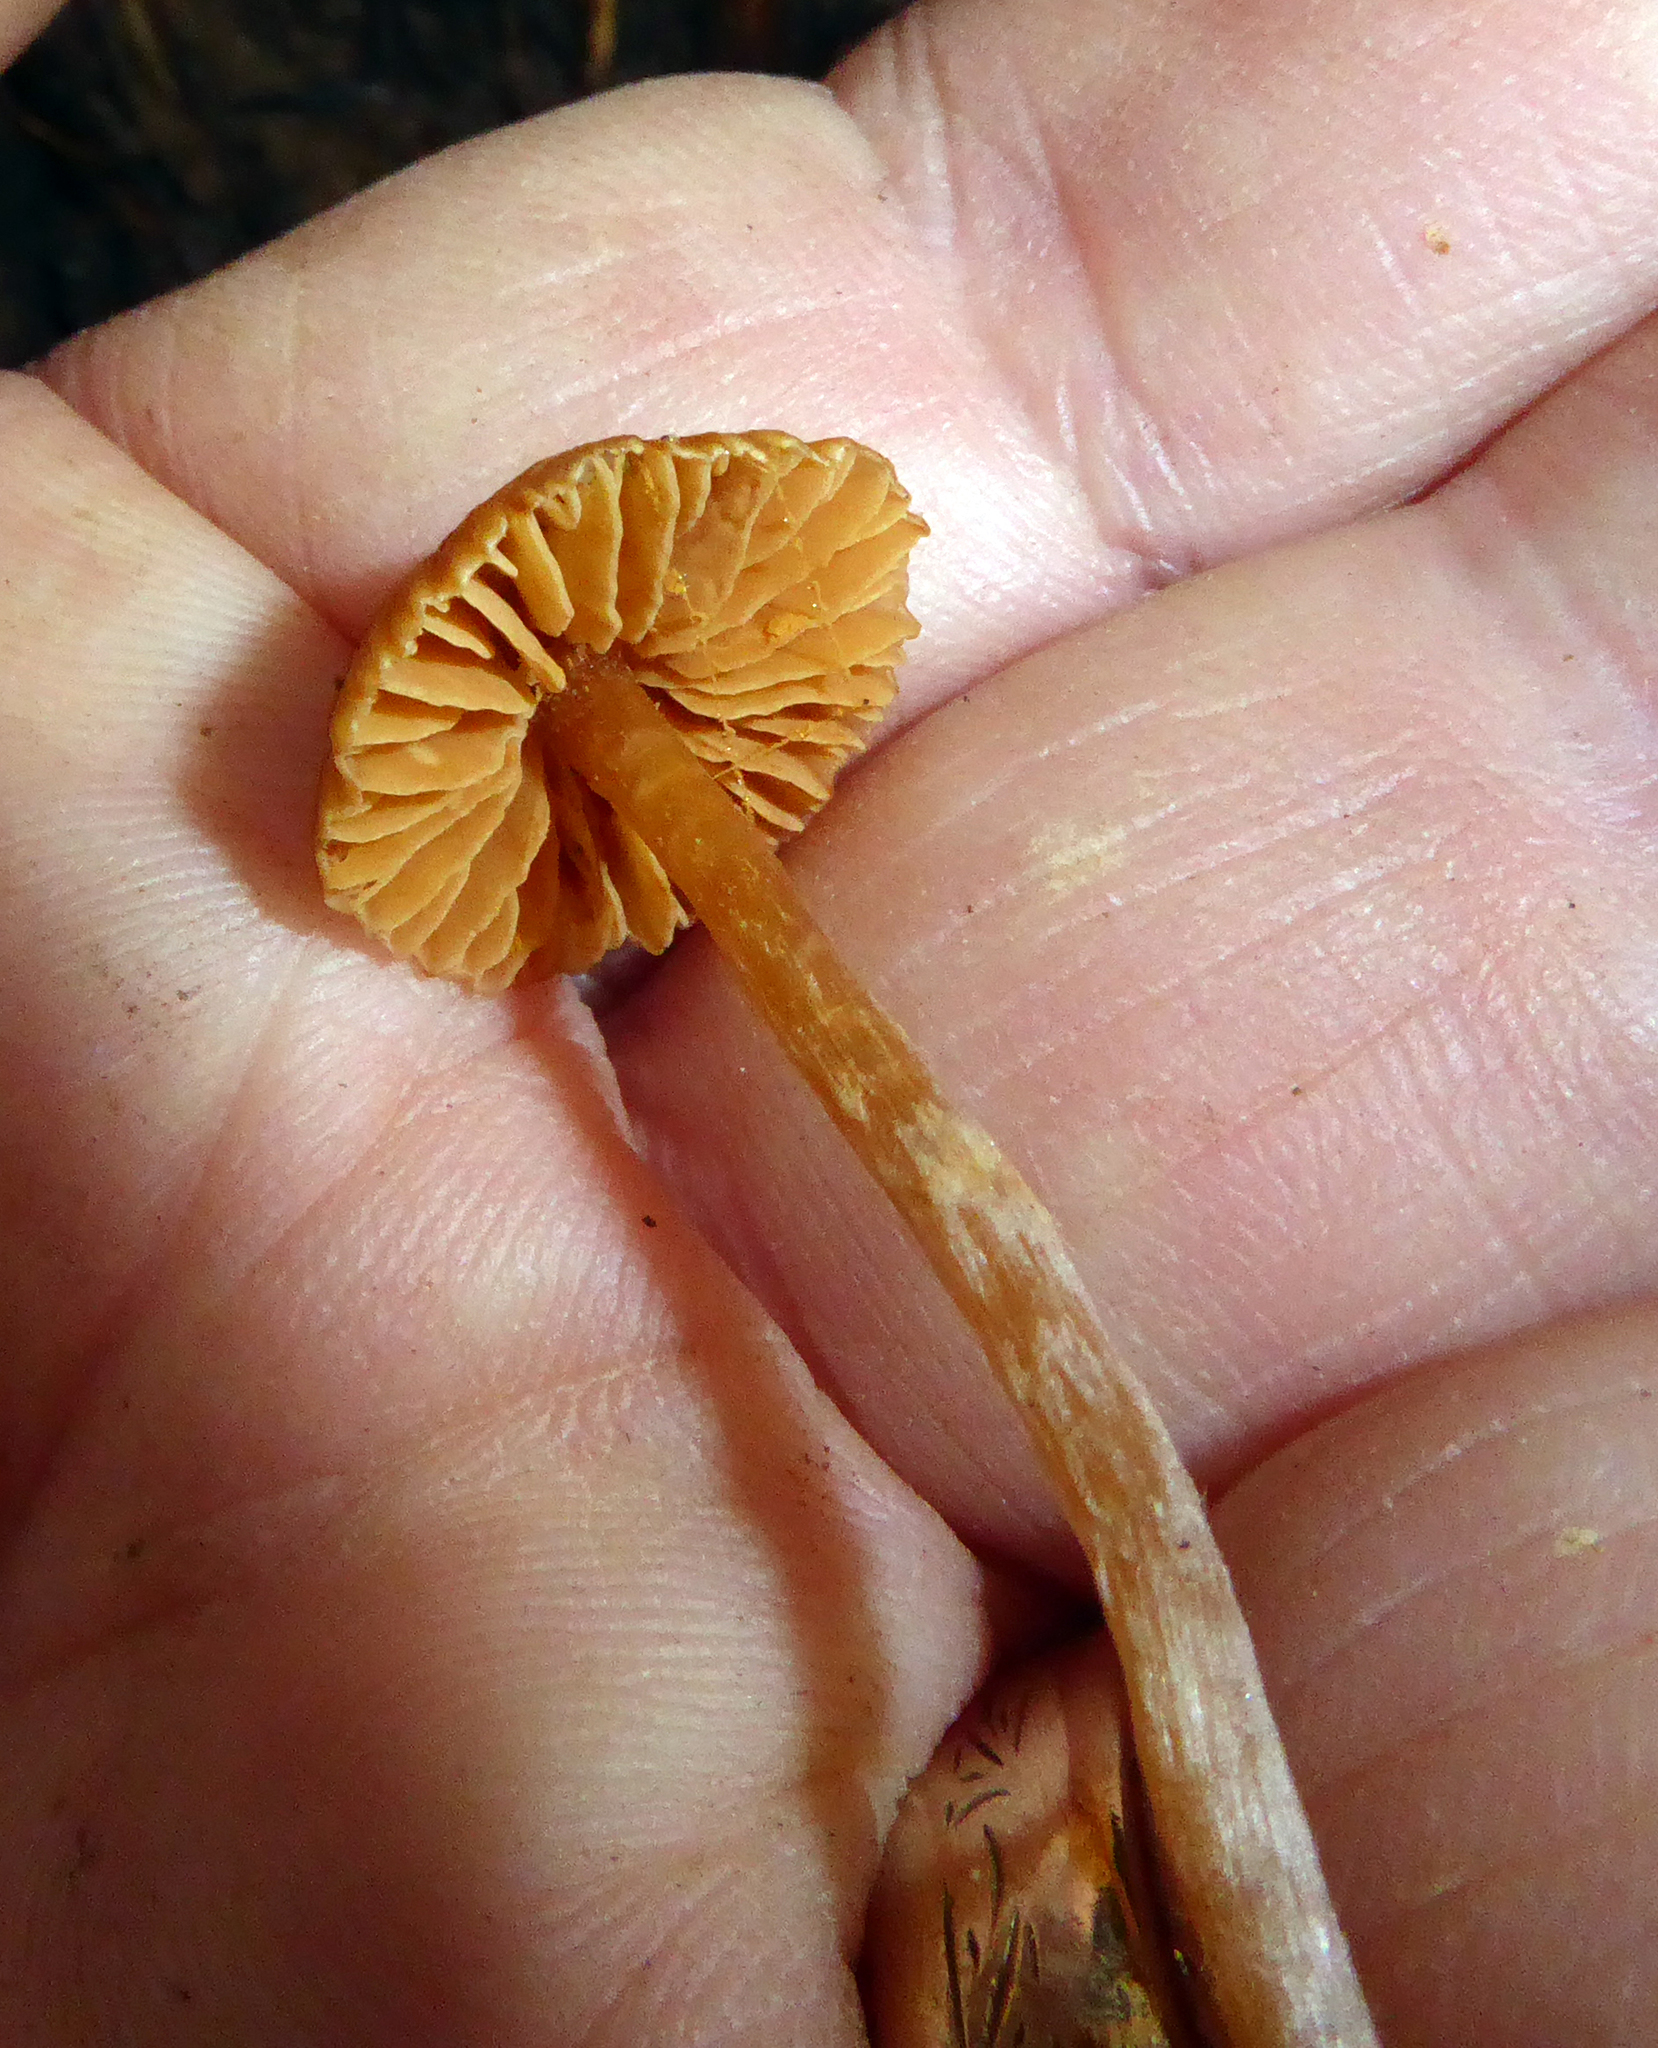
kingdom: Fungi
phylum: Basidiomycota
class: Agaricomycetes
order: Agaricales
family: Cortinariaceae
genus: Cortinarius
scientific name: Cortinarius
